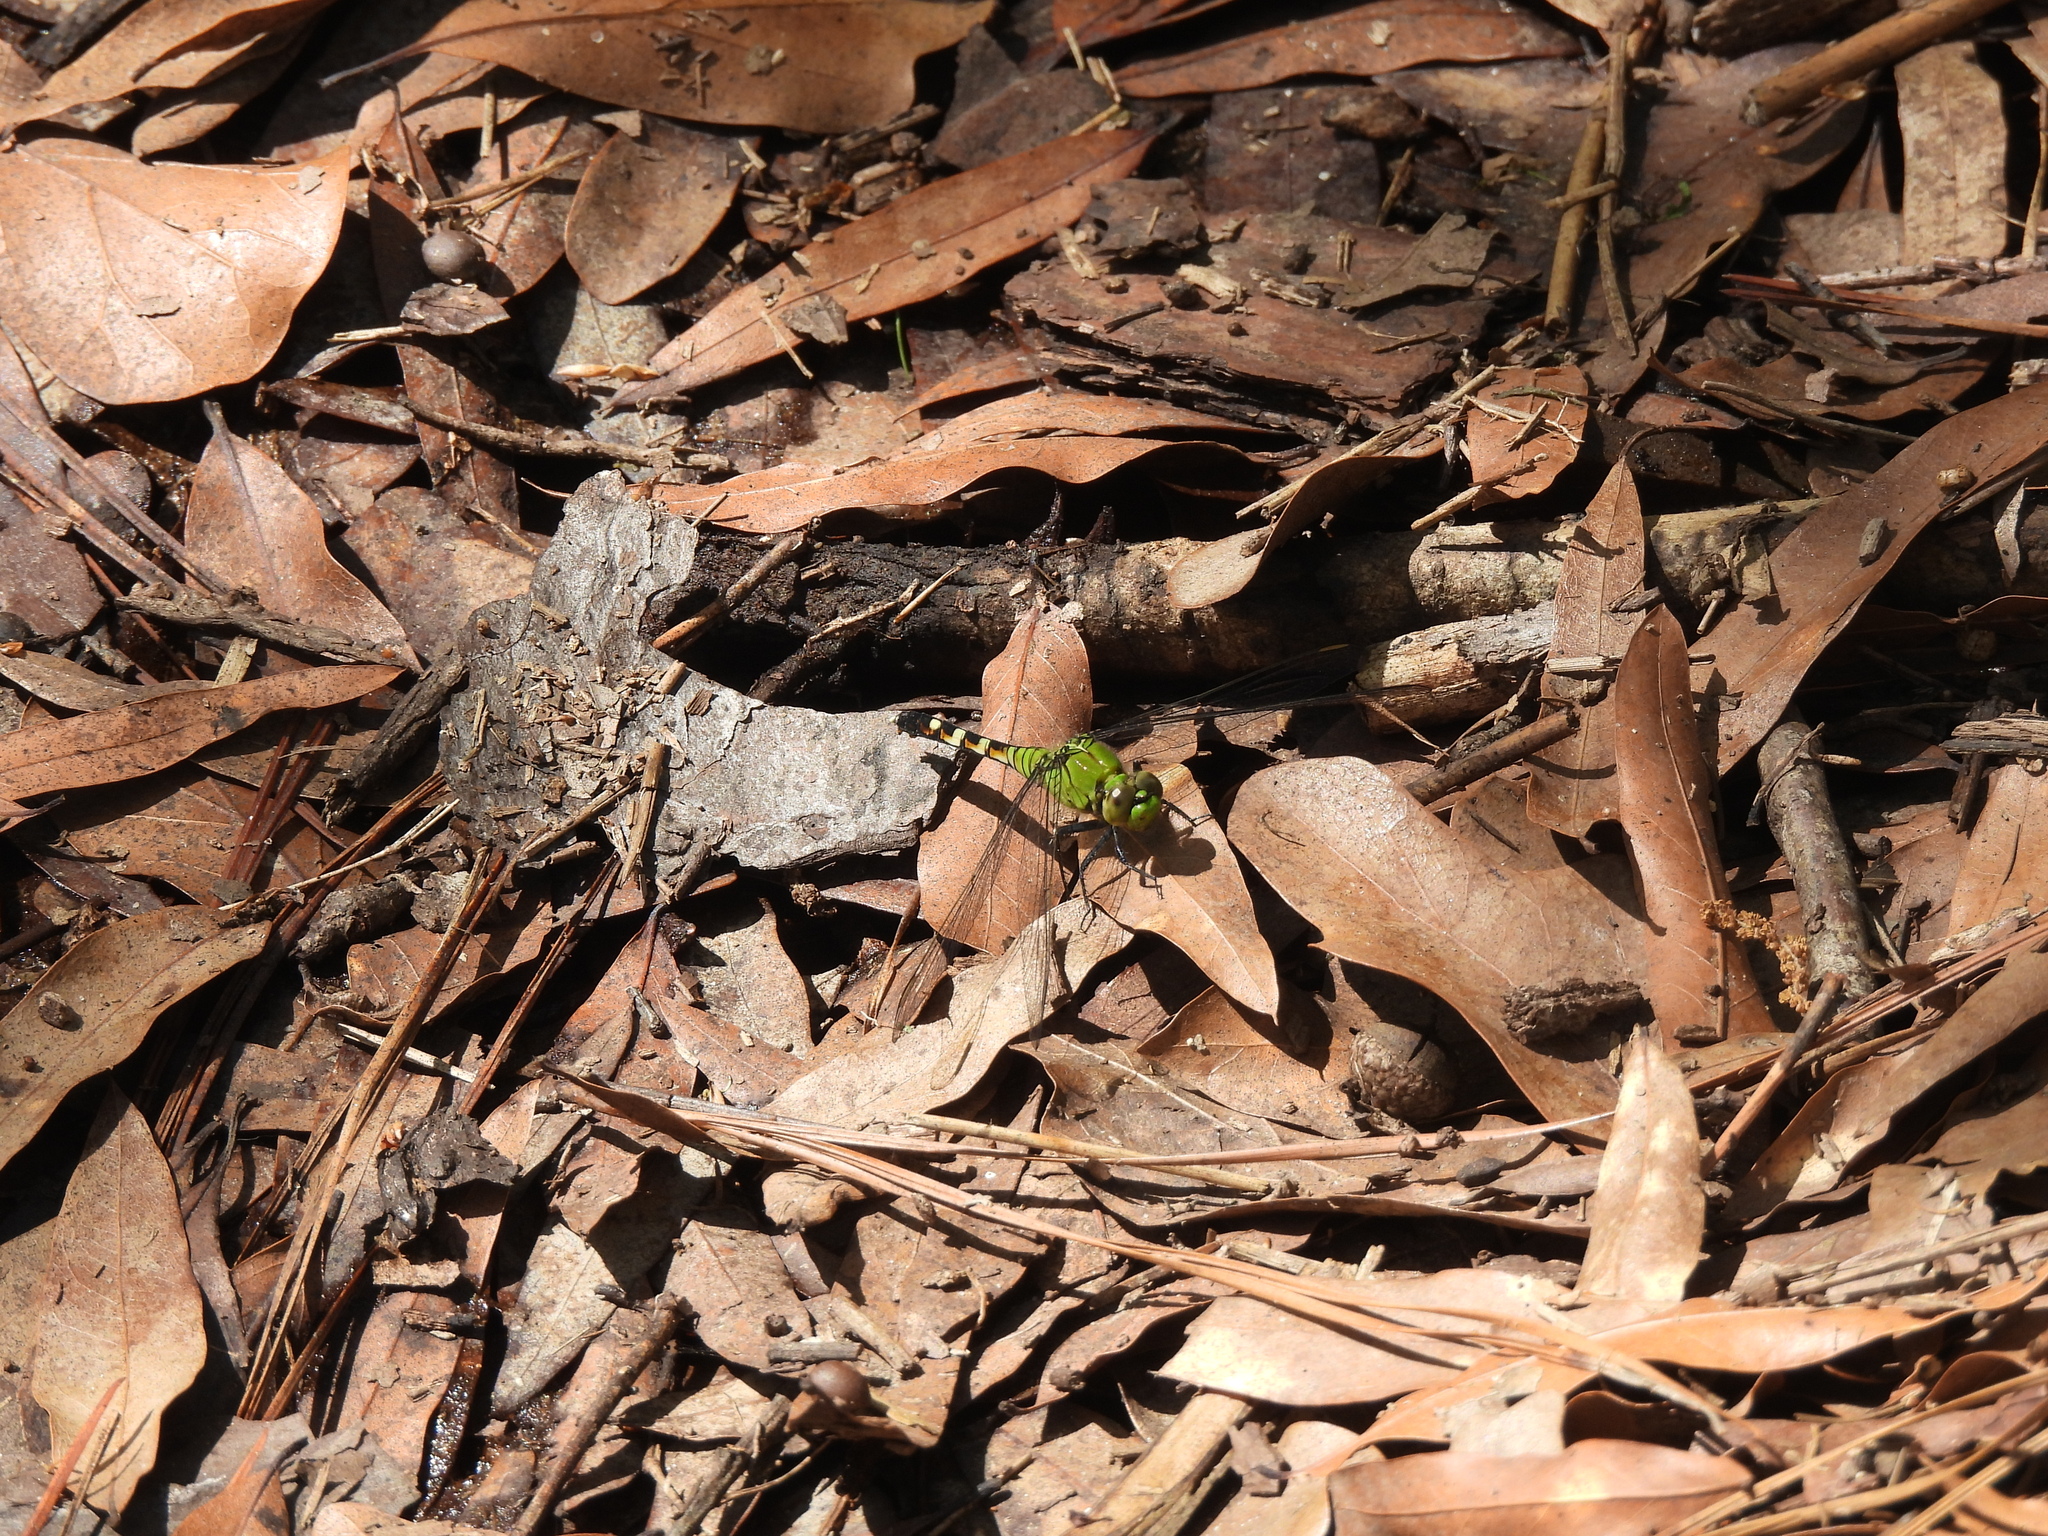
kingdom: Animalia
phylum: Arthropoda
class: Insecta
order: Odonata
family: Libellulidae
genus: Erythemis
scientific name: Erythemis simplicicollis
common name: Eastern pondhawk
